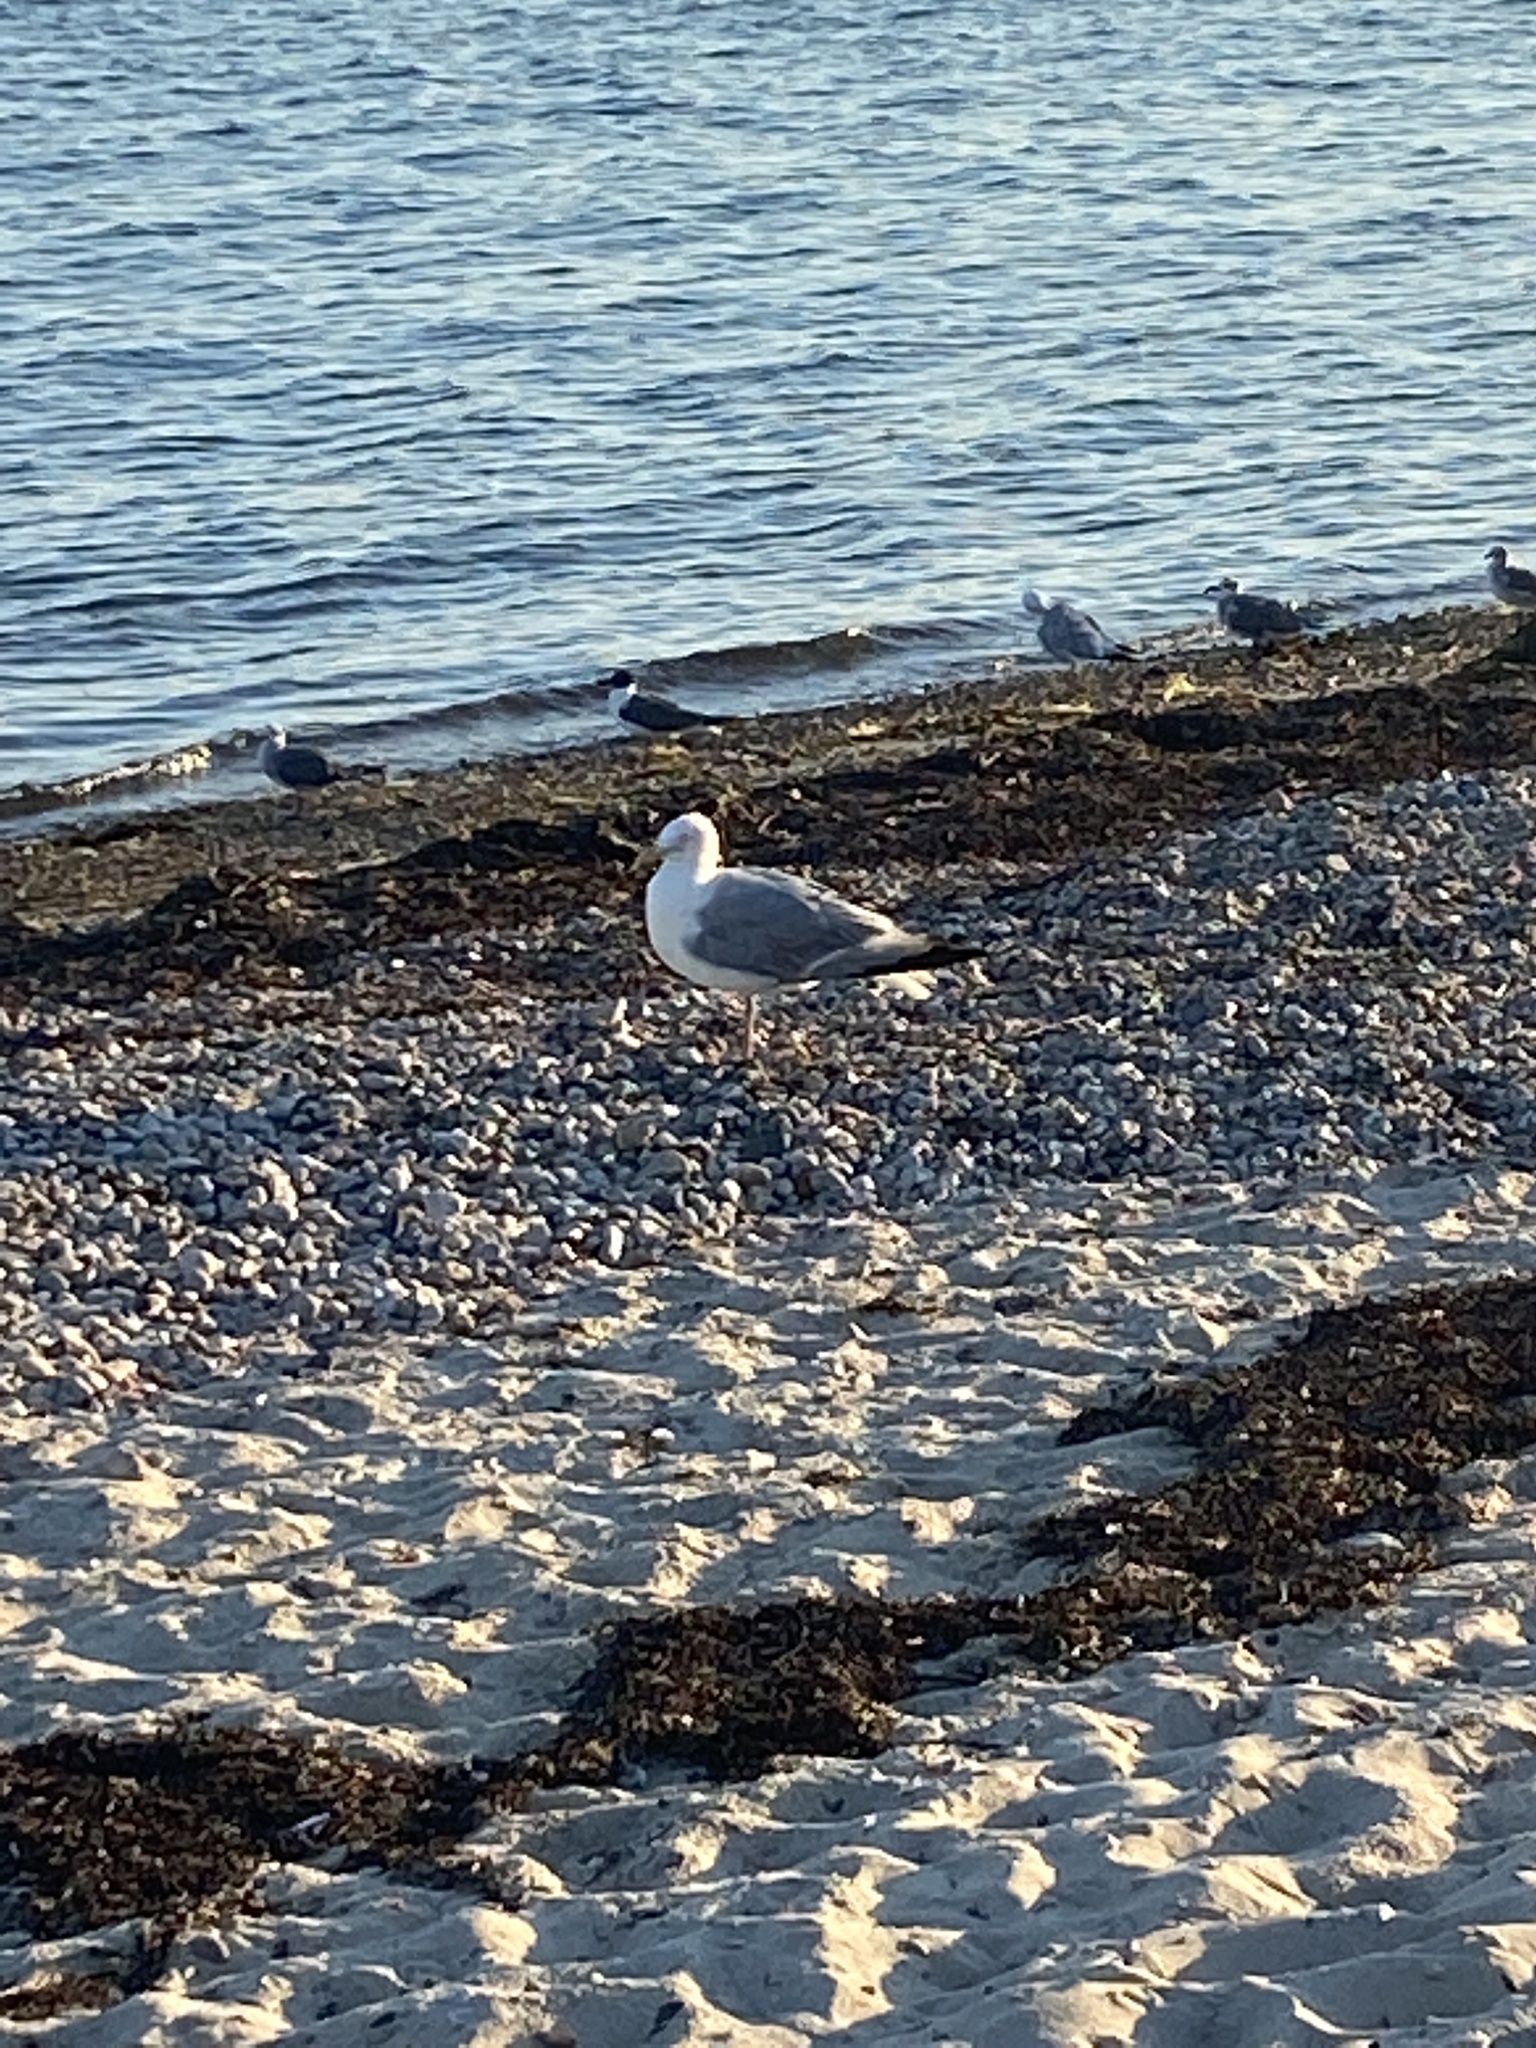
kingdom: Animalia
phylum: Chordata
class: Aves
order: Charadriiformes
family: Laridae
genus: Larus
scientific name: Larus argentatus
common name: Herring gull
